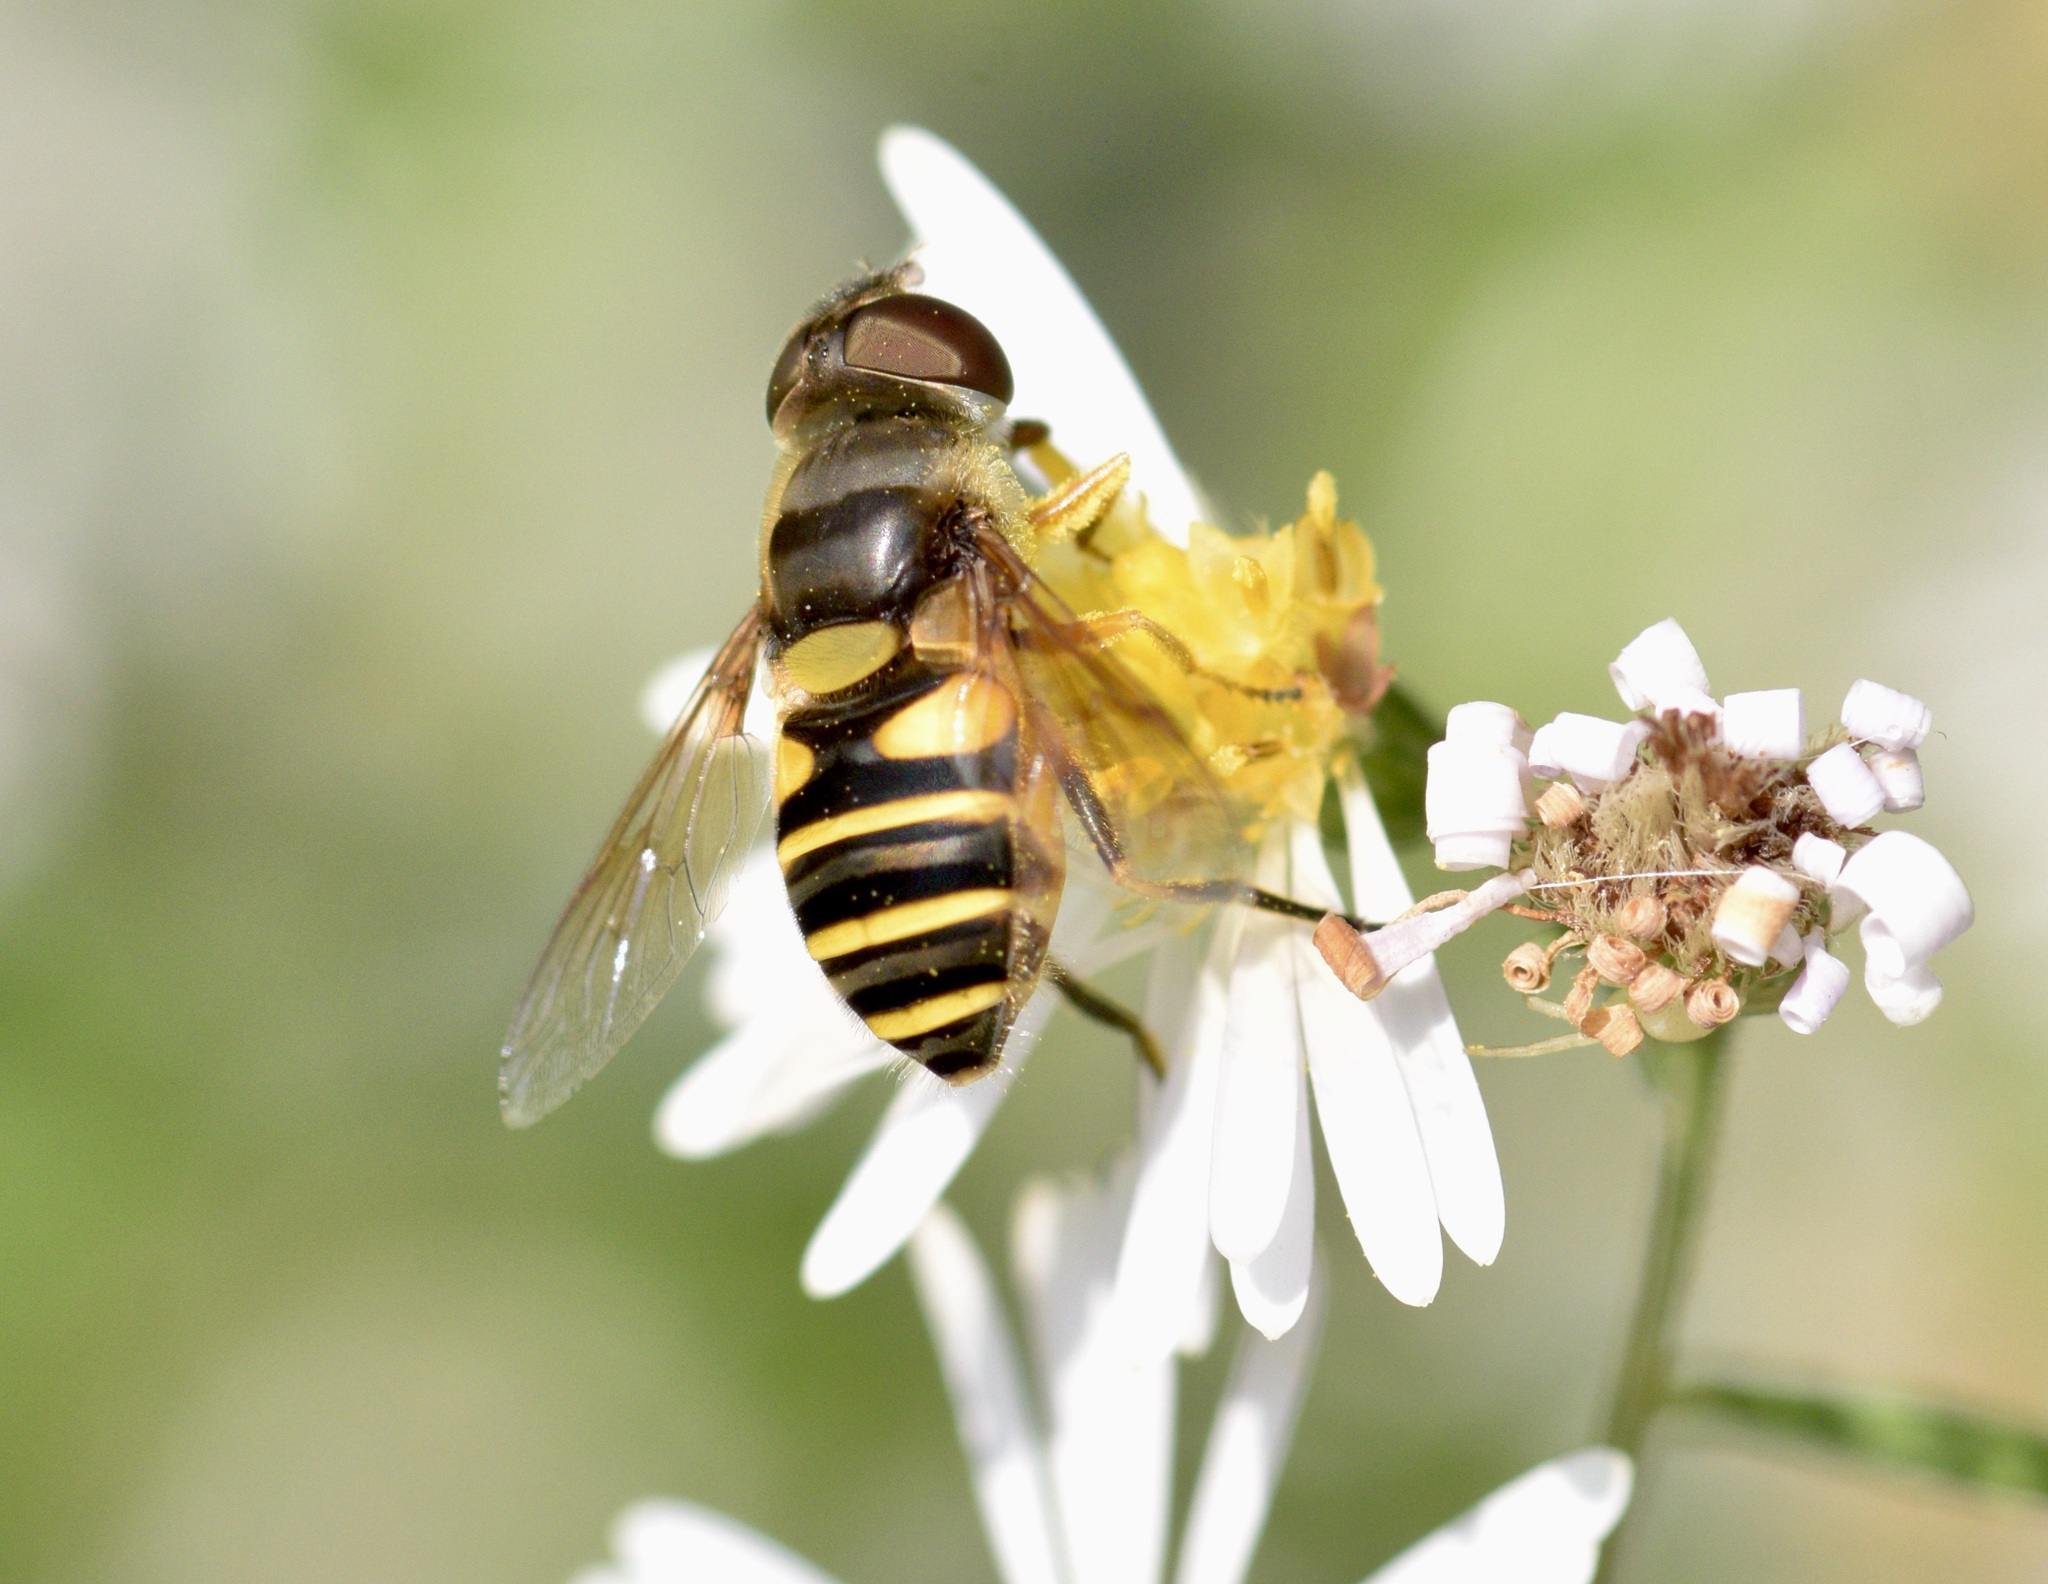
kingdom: Animalia
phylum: Arthropoda
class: Insecta
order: Diptera
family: Syrphidae
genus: Eristalis
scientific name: Eristalis transversa
